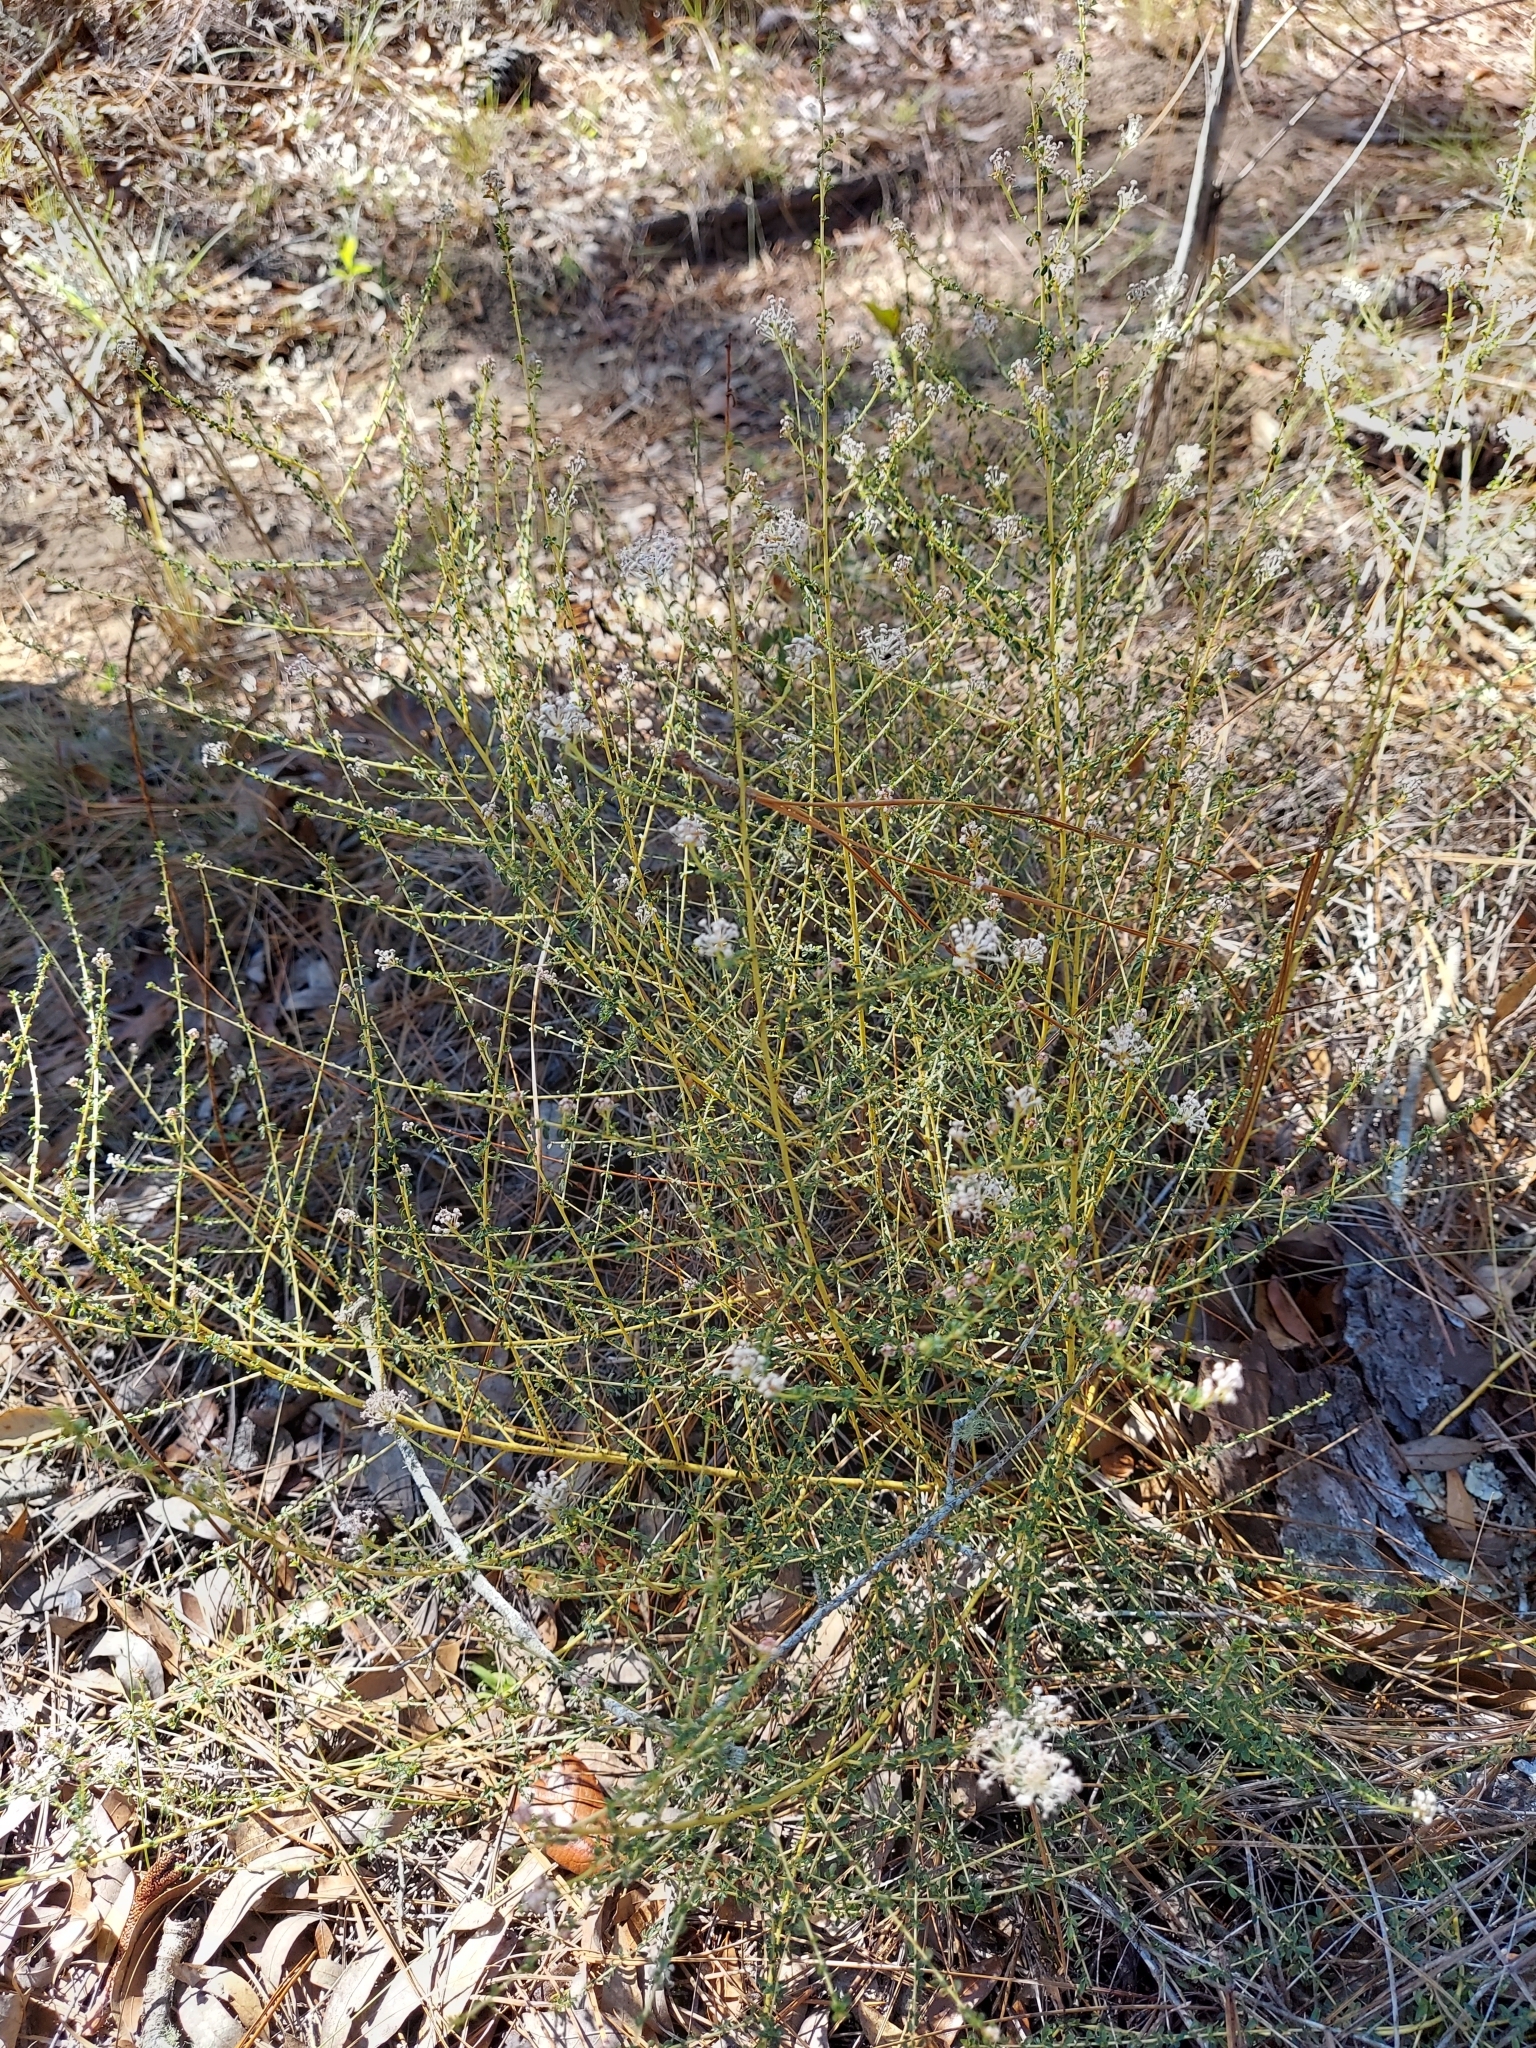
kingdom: Plantae
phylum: Tracheophyta
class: Magnoliopsida
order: Rosales
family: Rhamnaceae
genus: Ceanothus
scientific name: Ceanothus microphyllus
